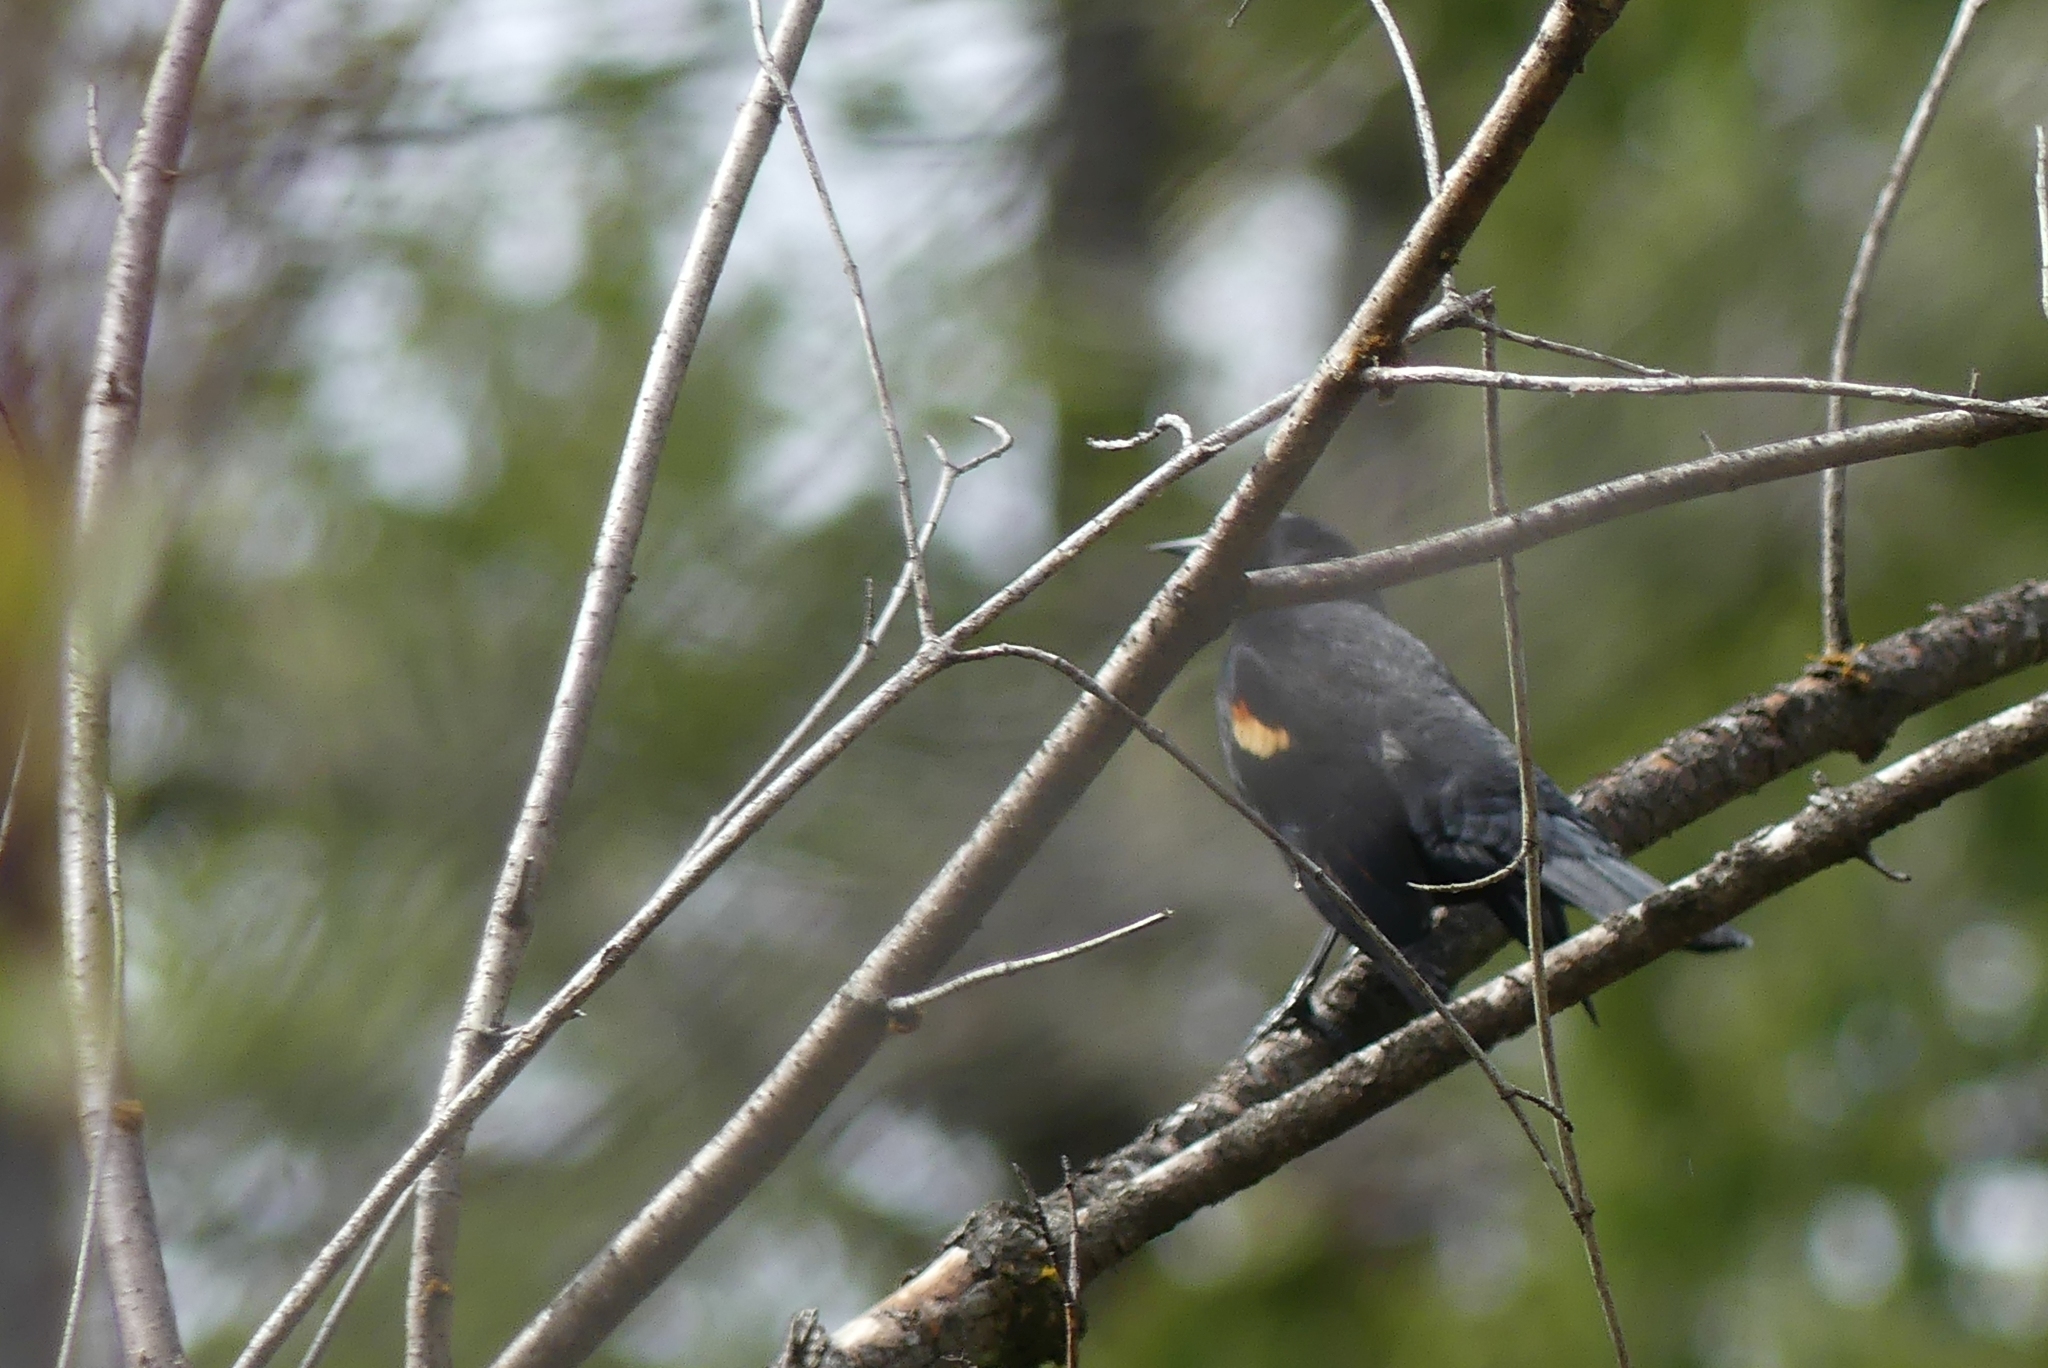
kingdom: Animalia
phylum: Chordata
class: Aves
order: Passeriformes
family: Icteridae
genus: Agelaius
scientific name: Agelaius phoeniceus
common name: Red-winged blackbird
